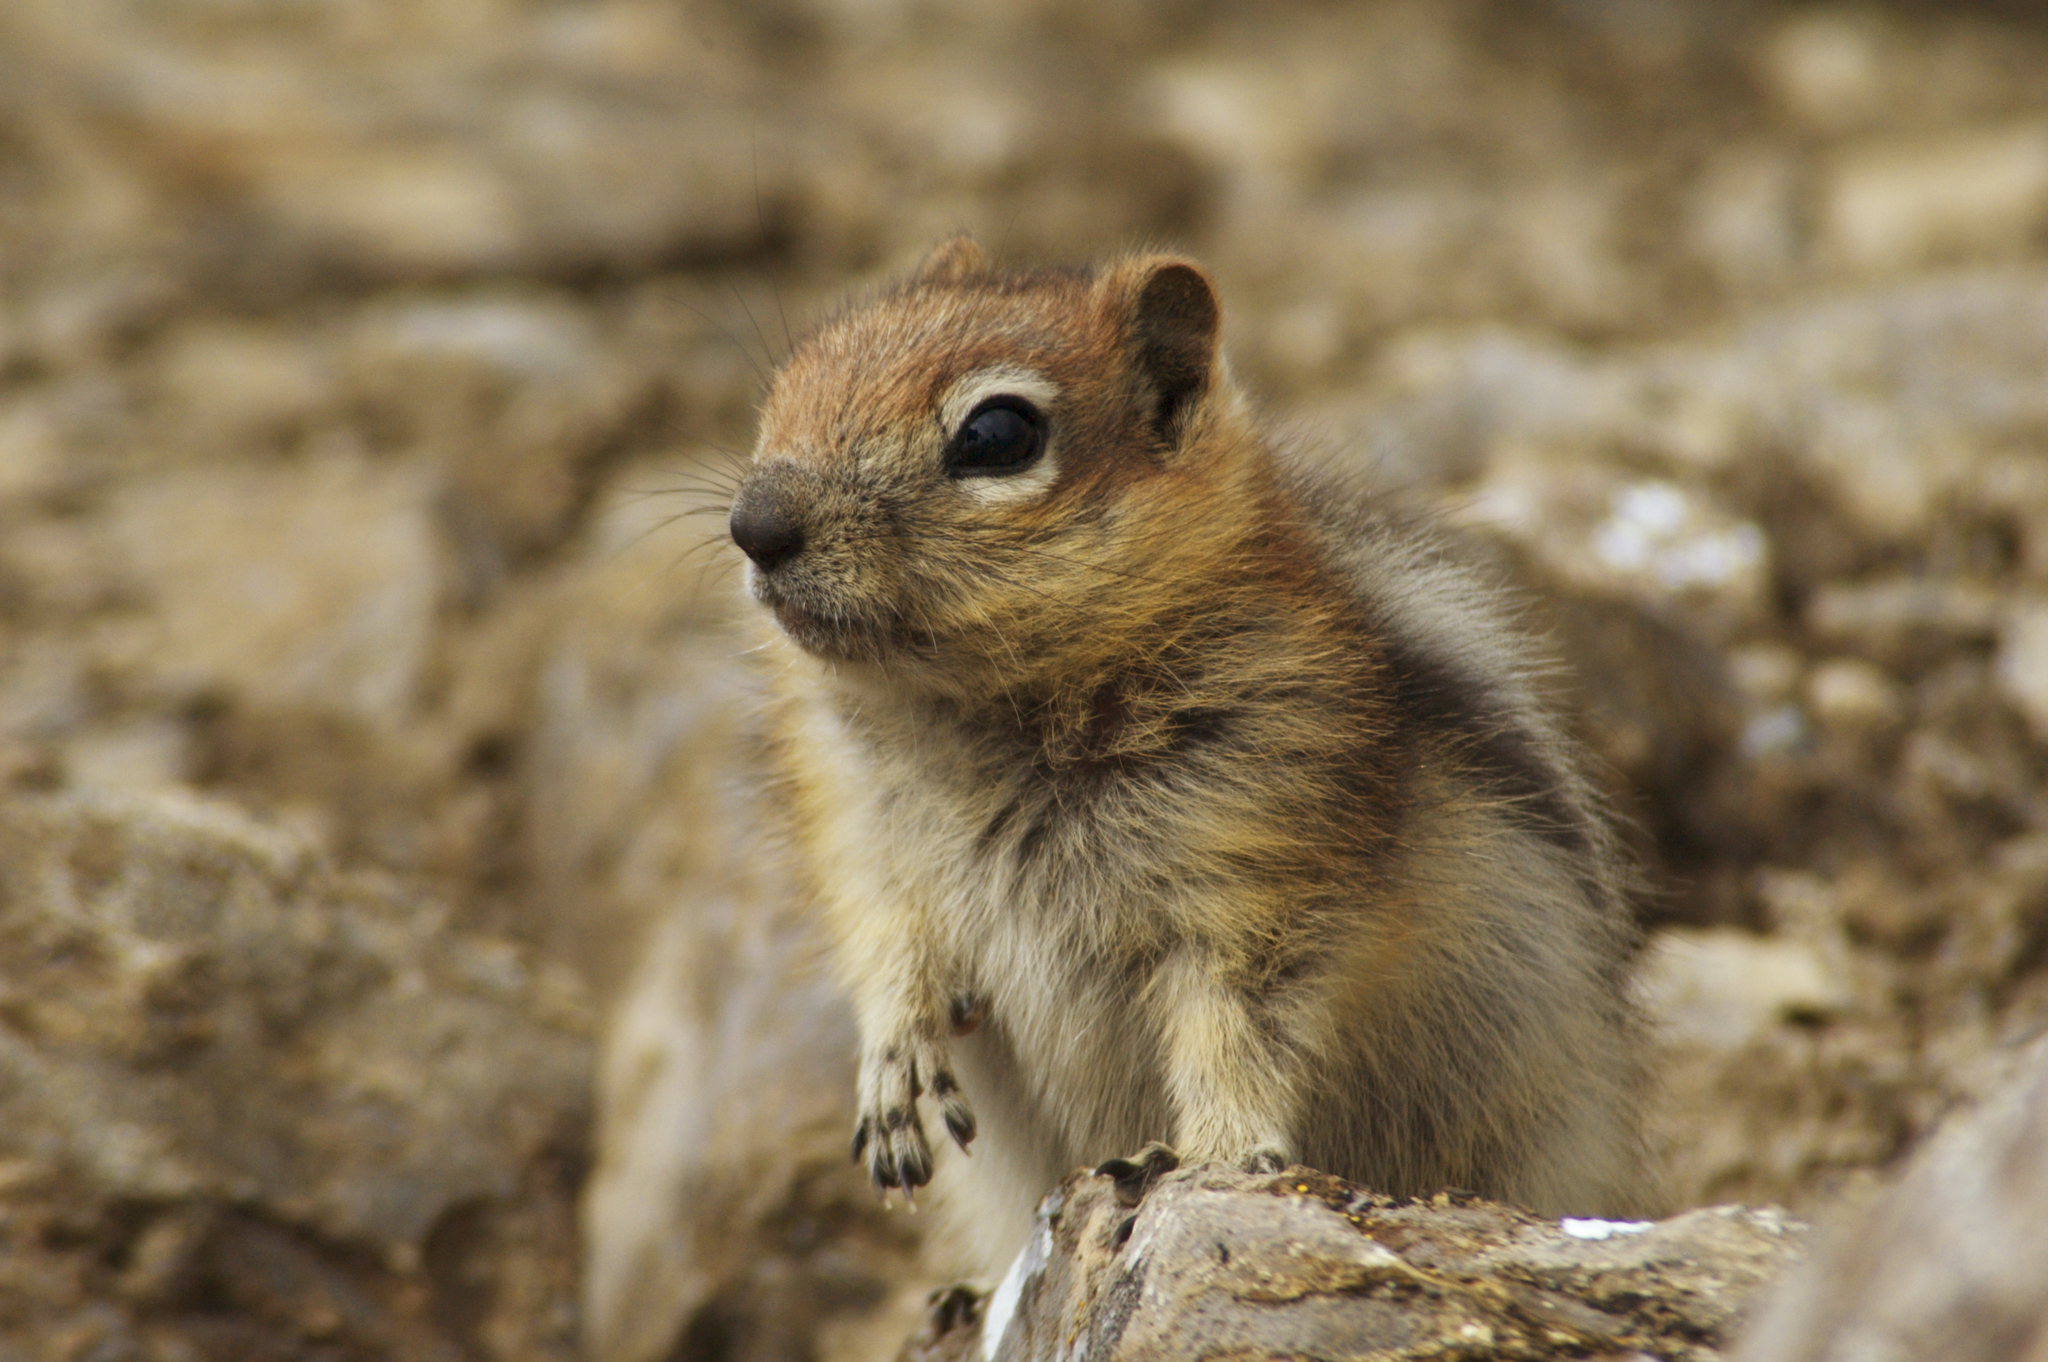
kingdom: Animalia
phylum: Chordata
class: Mammalia
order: Rodentia
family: Sciuridae
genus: Callospermophilus
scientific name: Callospermophilus lateralis
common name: Golden-mantled ground squirrel
